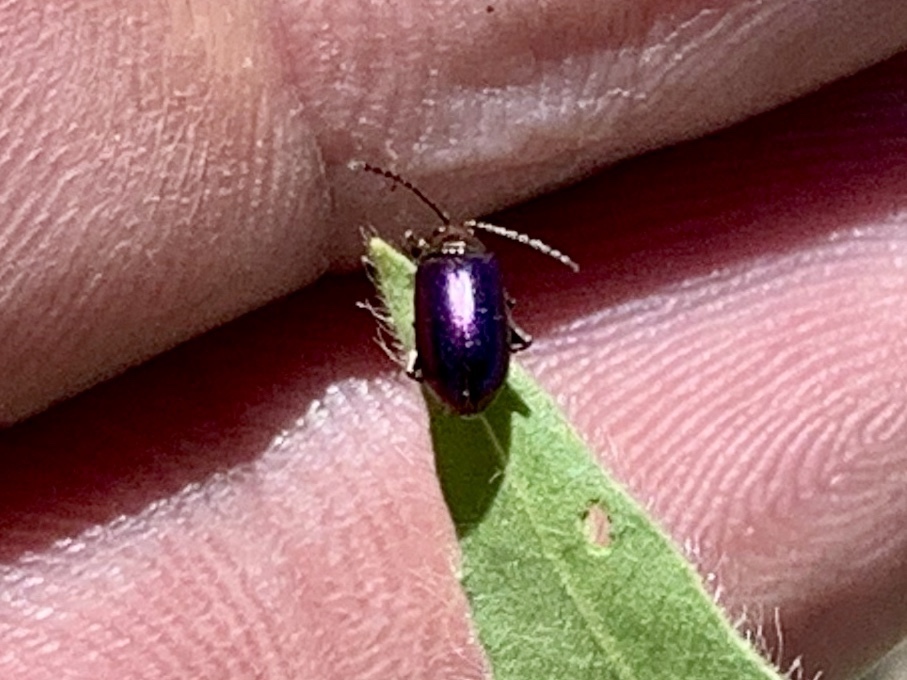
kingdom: Animalia
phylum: Arthropoda
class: Insecta
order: Coleoptera
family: Chrysomelidae
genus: Altica
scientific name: Altica torquata
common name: Leaf beetle
